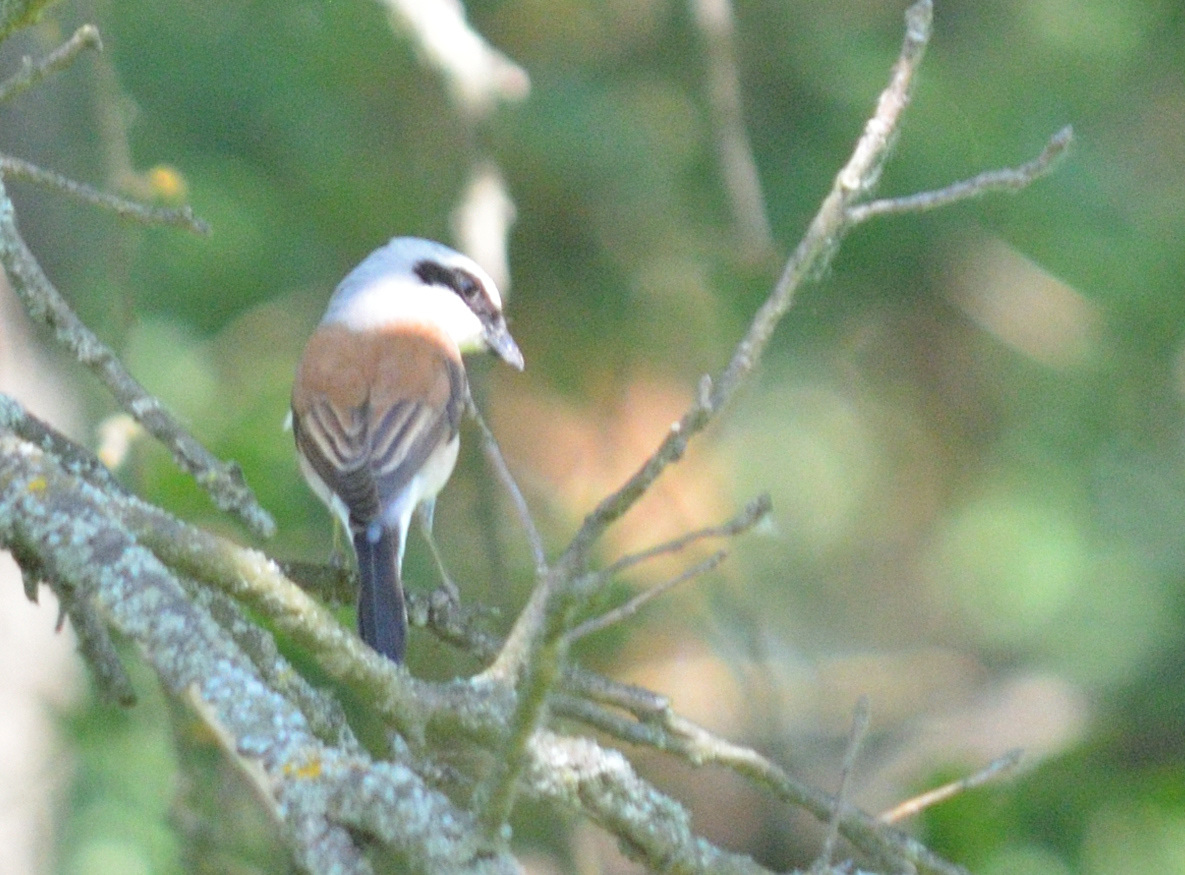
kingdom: Animalia
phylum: Chordata
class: Aves
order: Passeriformes
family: Laniidae
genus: Lanius
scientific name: Lanius collurio
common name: Red-backed shrike
